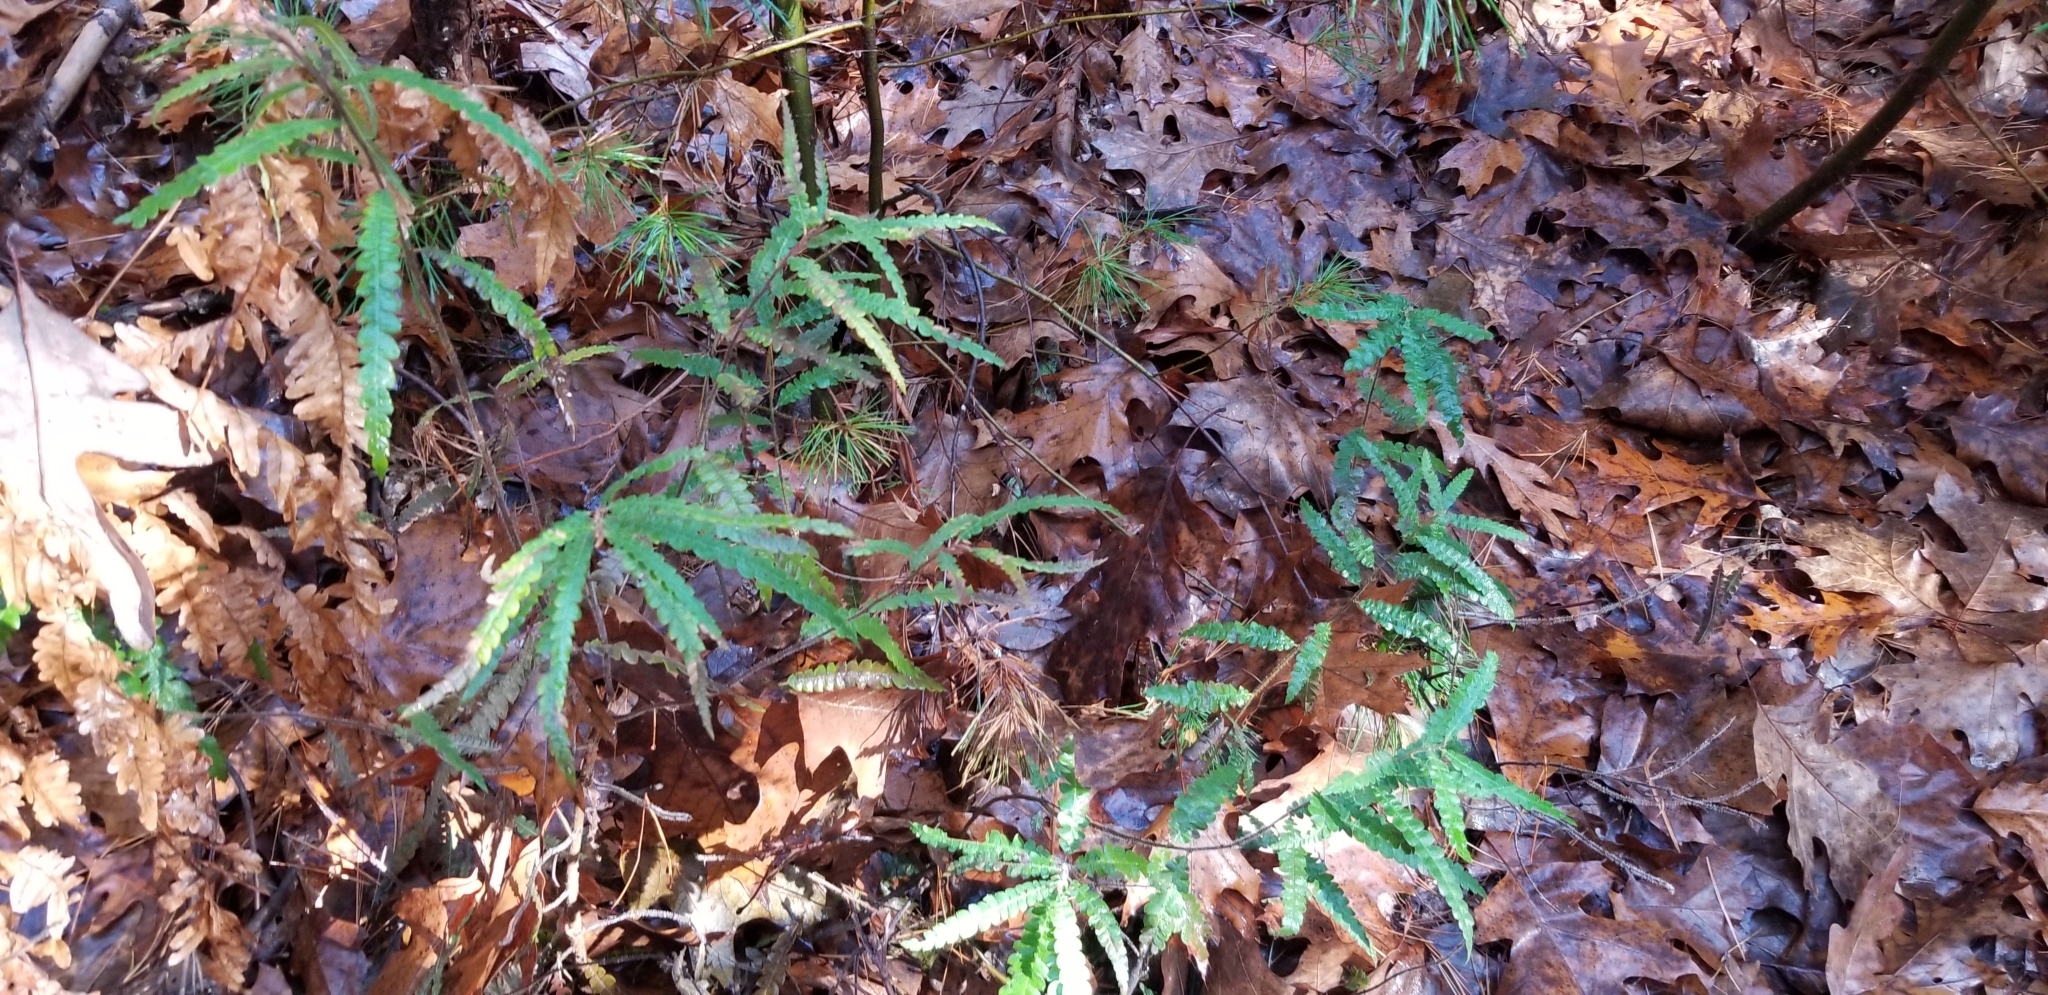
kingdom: Plantae
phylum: Tracheophyta
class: Magnoliopsida
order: Fagales
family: Myricaceae
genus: Comptonia
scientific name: Comptonia peregrina
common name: Sweet-fern
